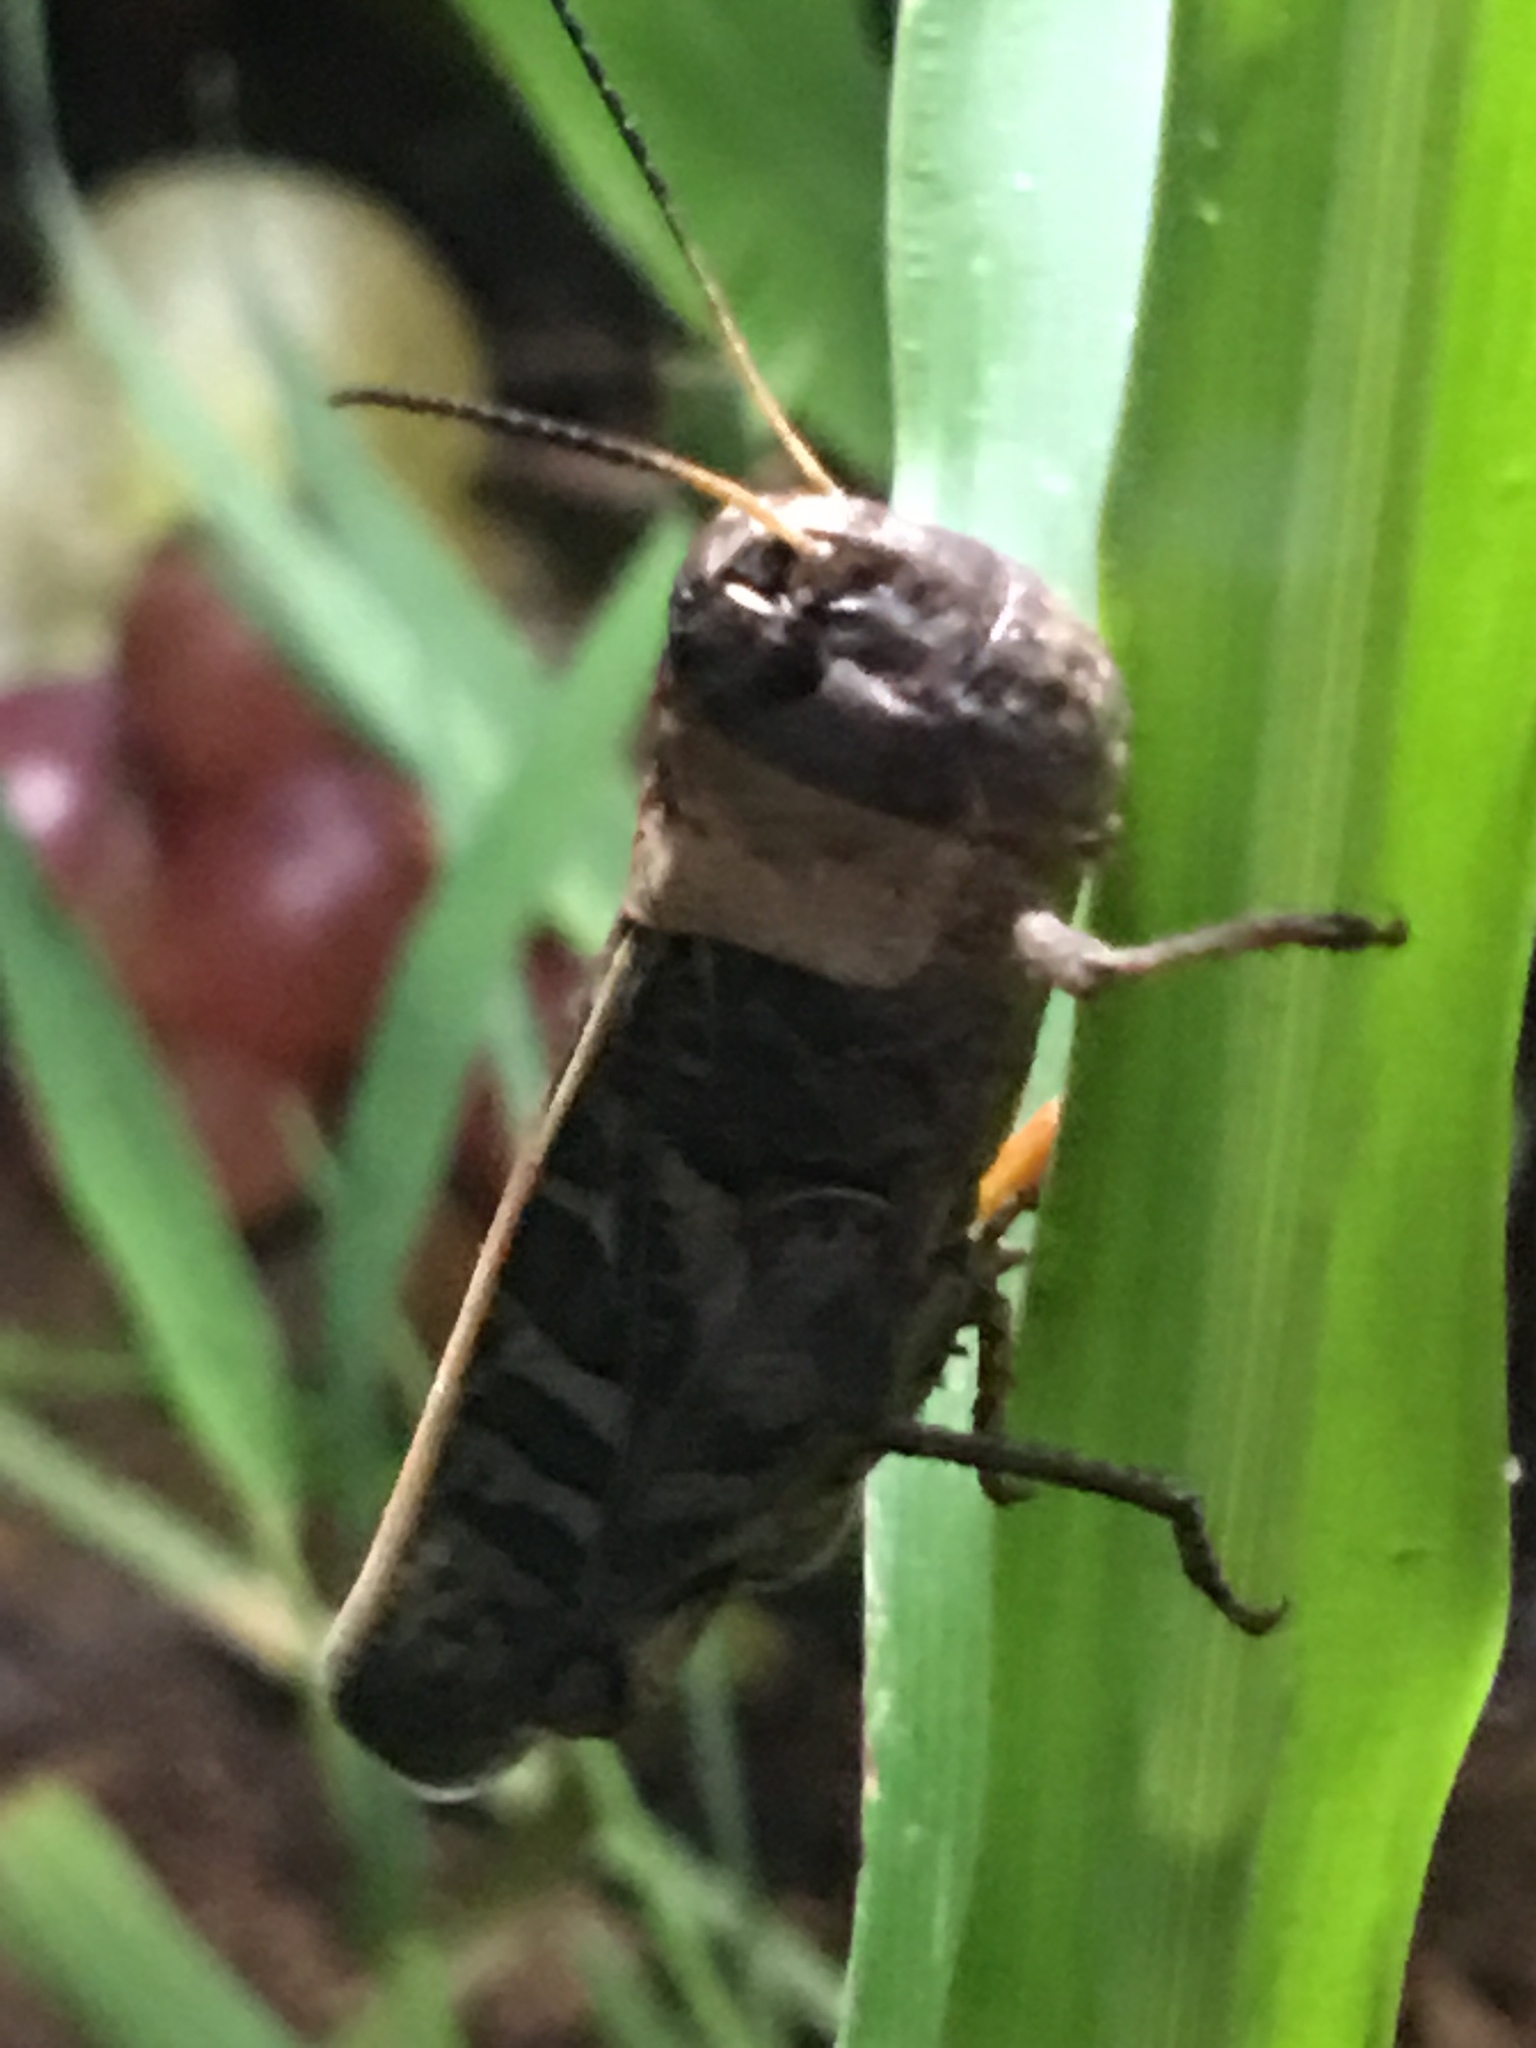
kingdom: Animalia
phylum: Arthropoda
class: Insecta
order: Orthoptera
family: Acrididae
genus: Hippiscus
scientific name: Hippiscus ocelote
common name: Wrinkled grasshopper
